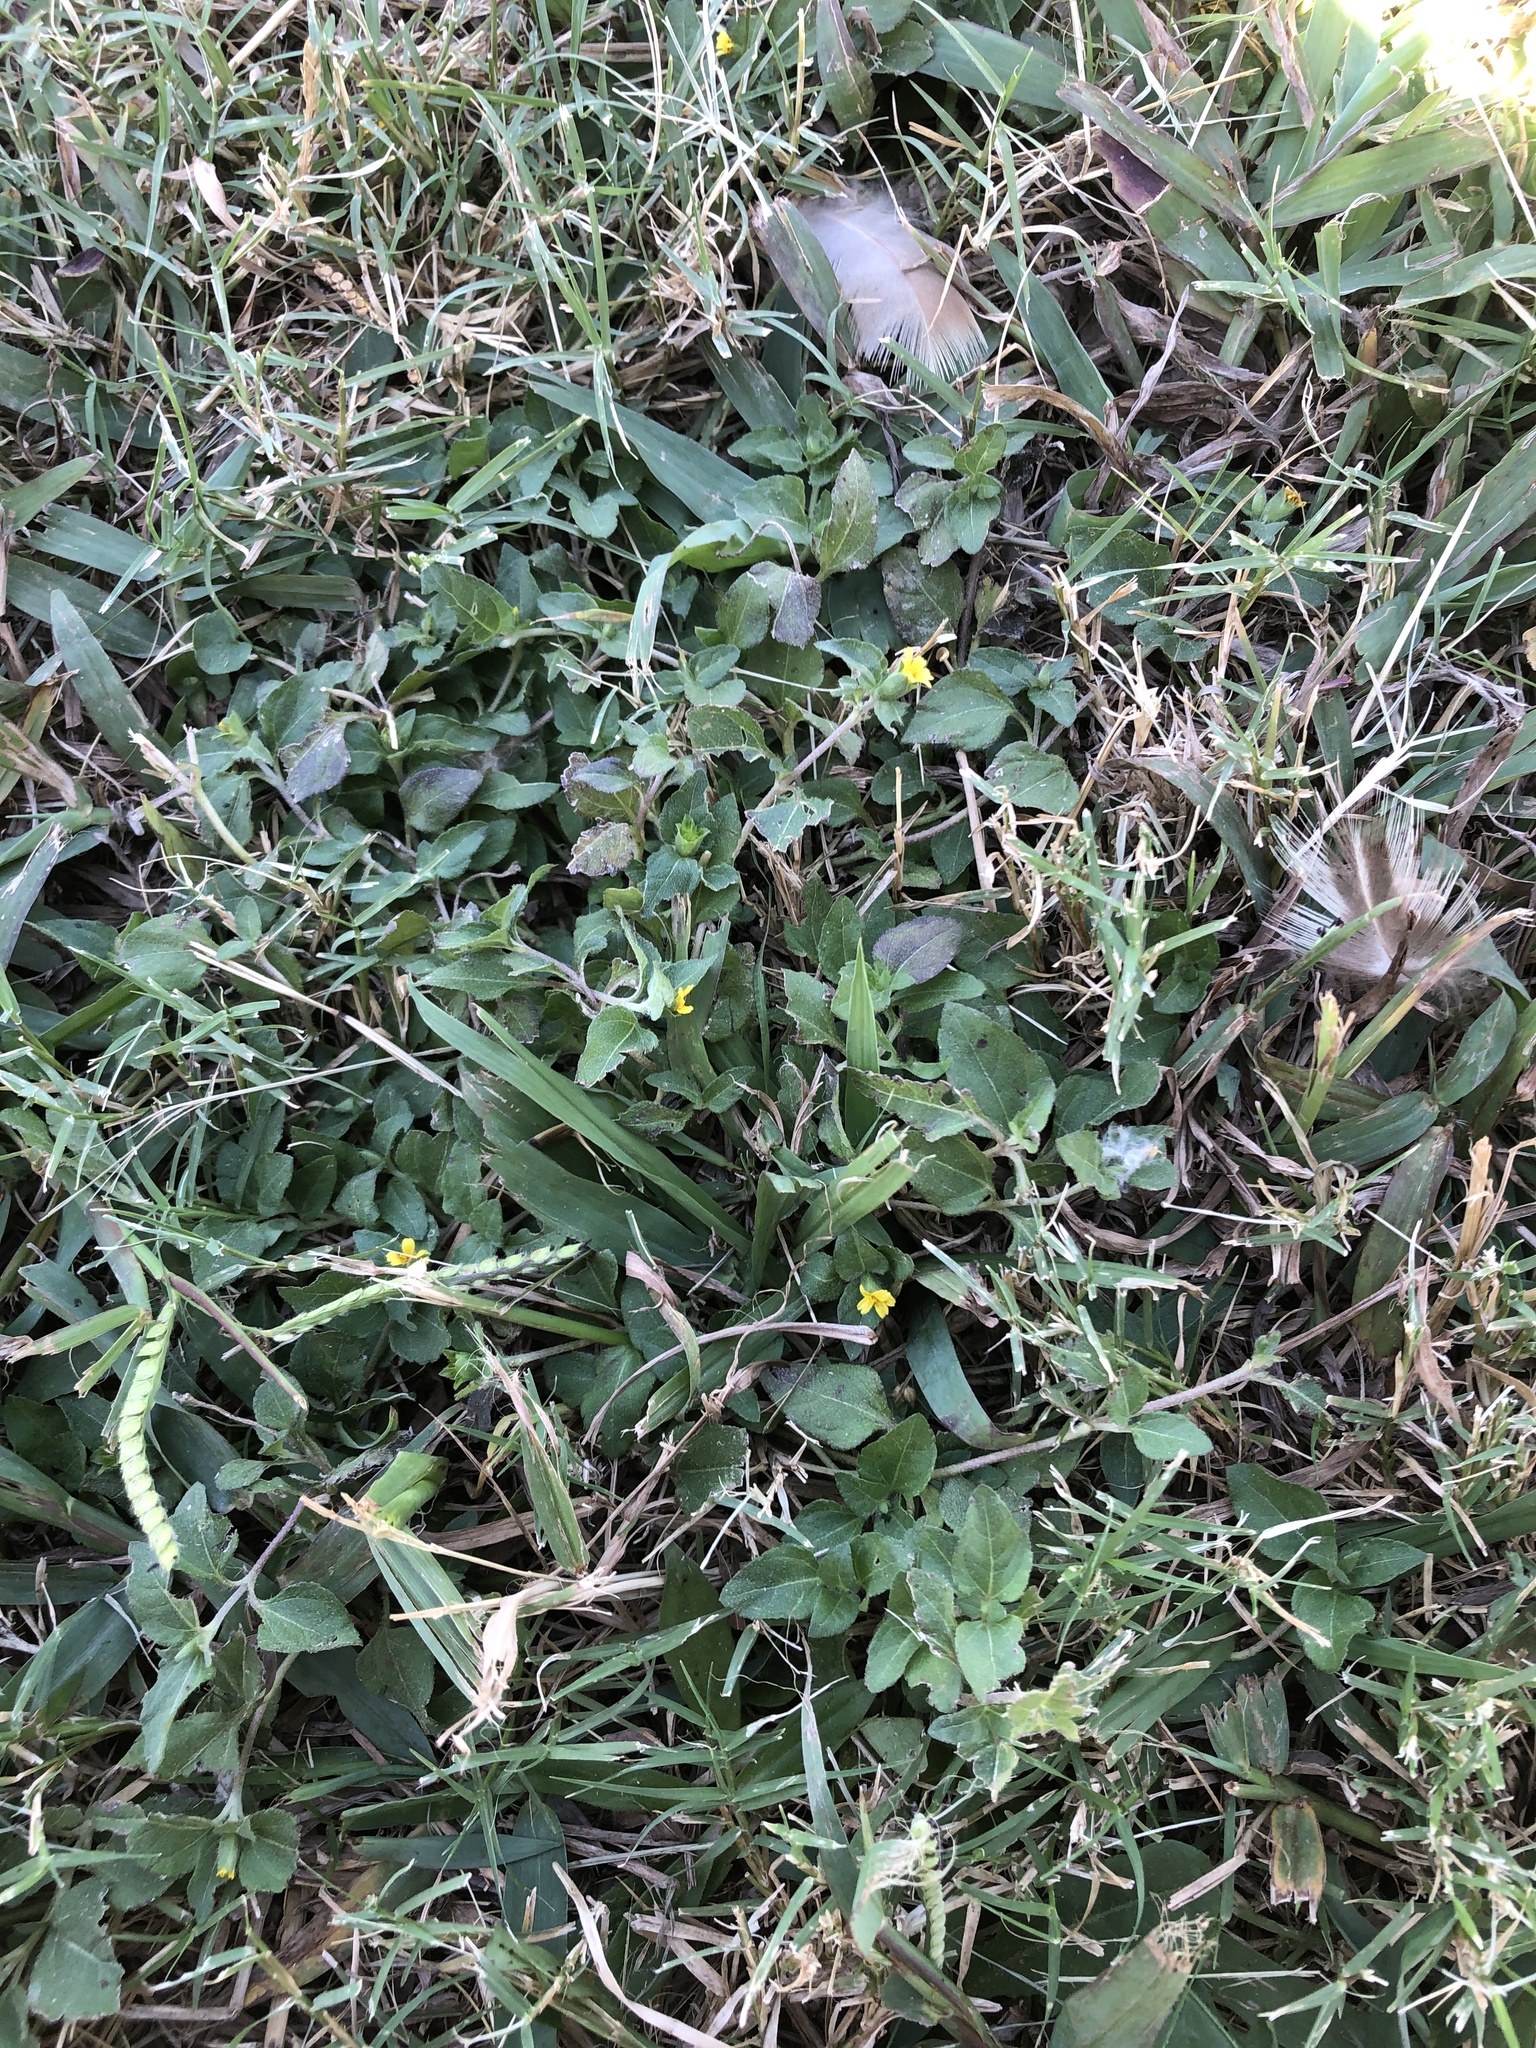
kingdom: Plantae
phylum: Tracheophyta
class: Magnoliopsida
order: Asterales
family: Asteraceae
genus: Calyptocarpus
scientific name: Calyptocarpus vialis
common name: Straggler daisy
